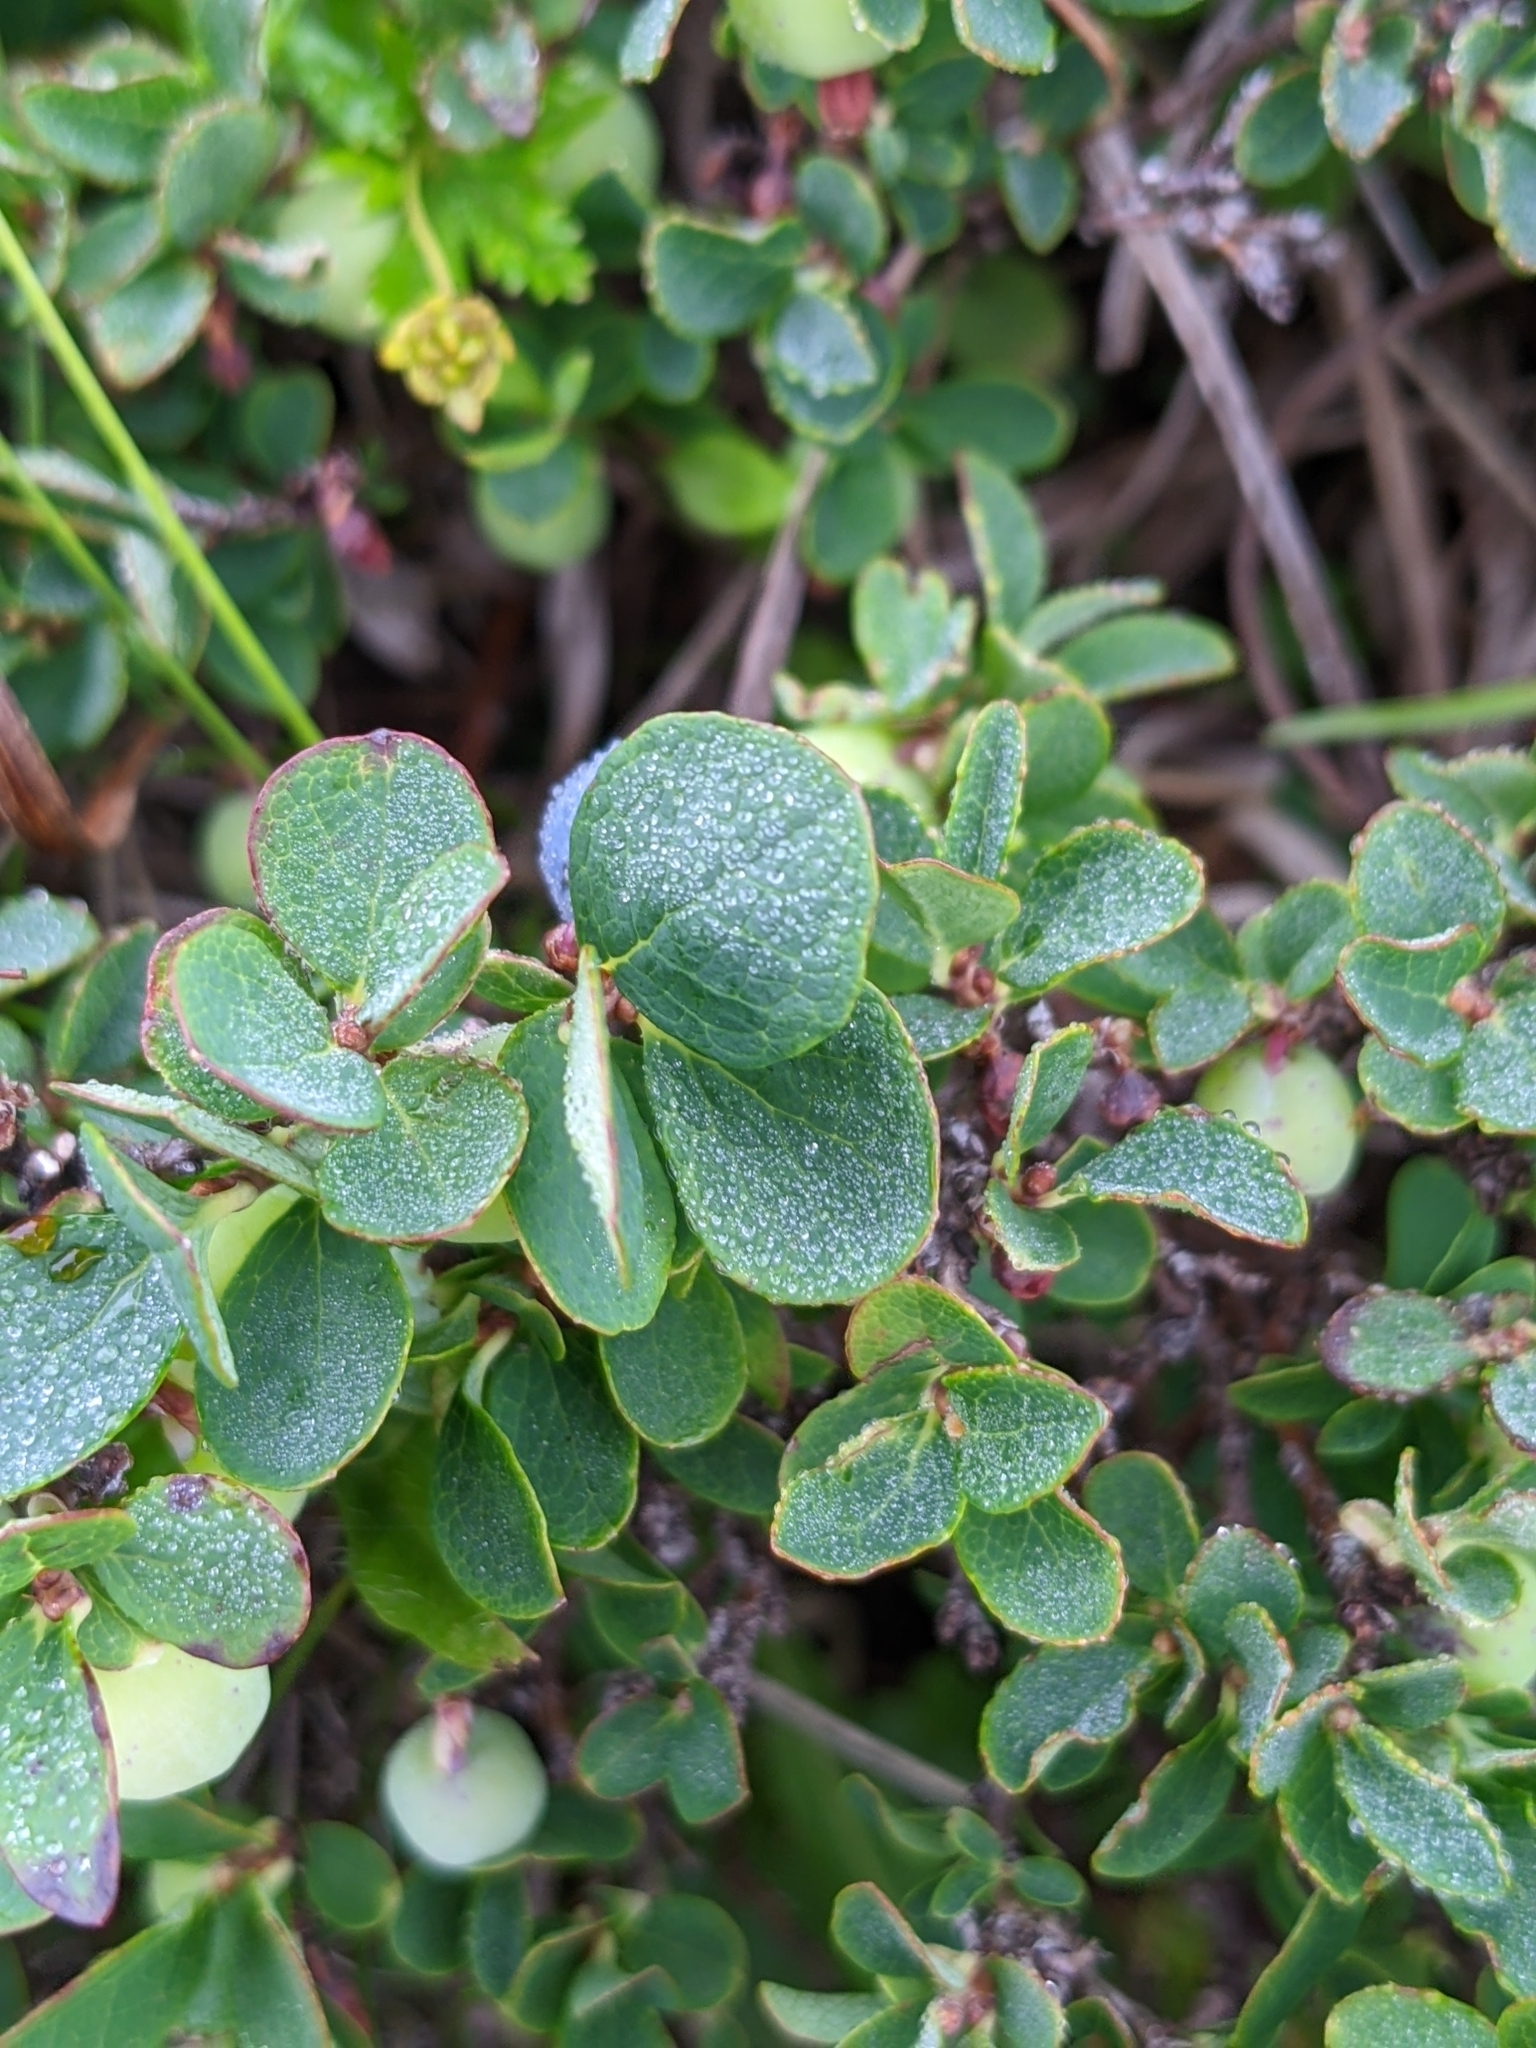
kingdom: Plantae
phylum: Tracheophyta
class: Magnoliopsida
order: Ericales
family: Ericaceae
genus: Vaccinium
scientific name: Vaccinium uliginosum
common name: Bog bilberry
